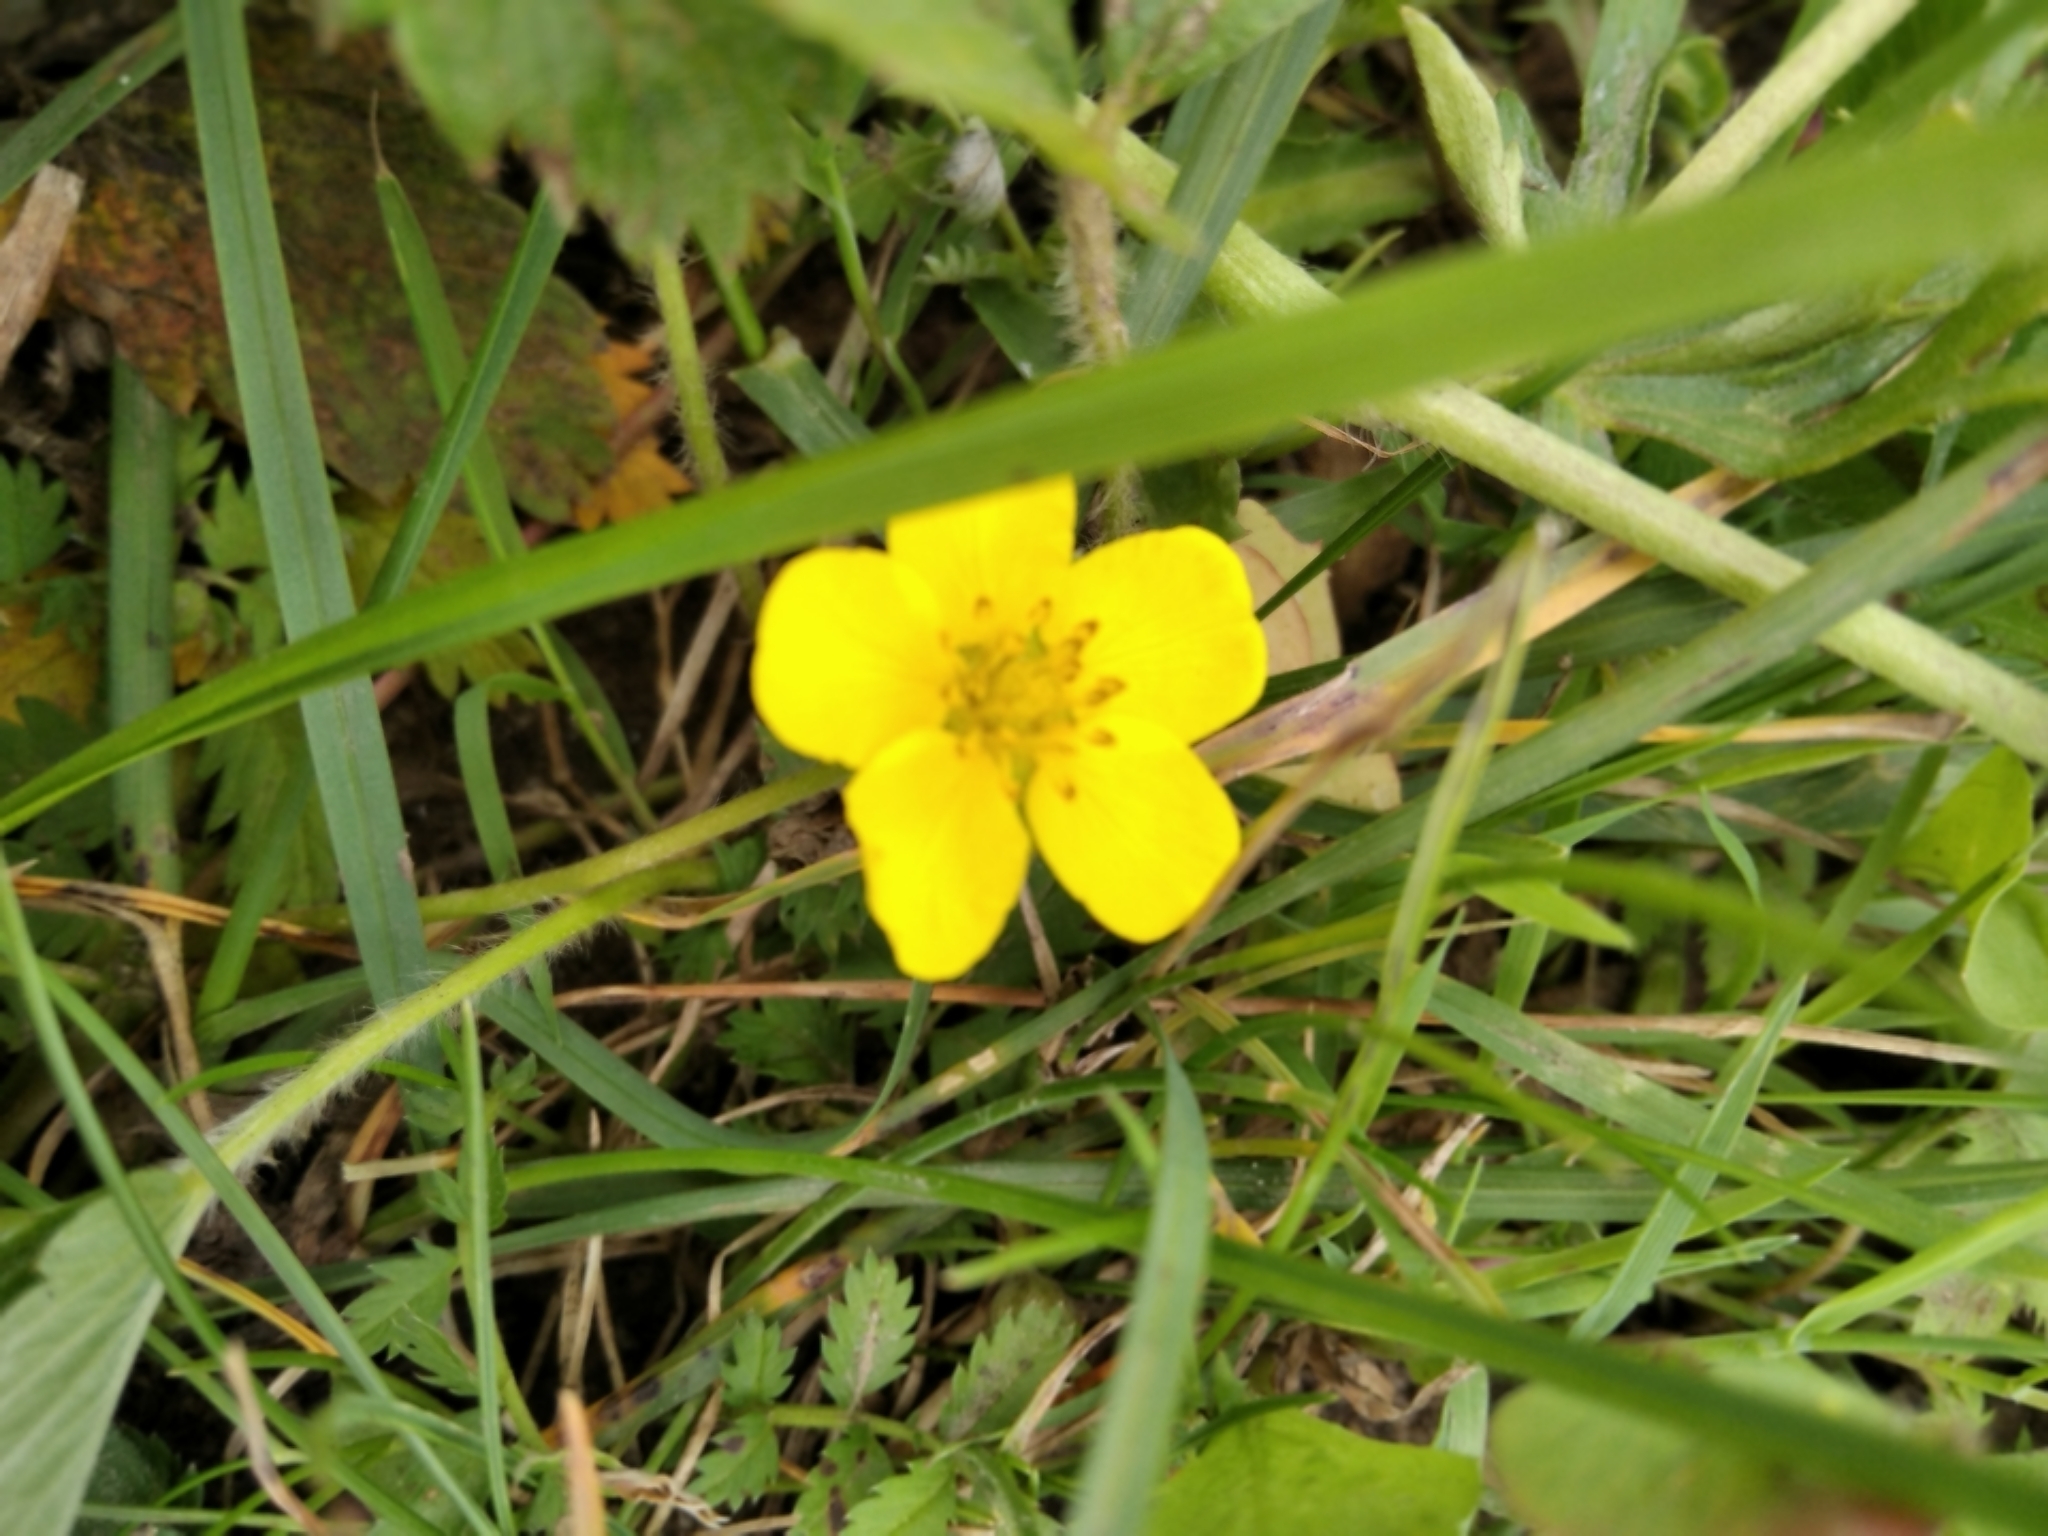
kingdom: Plantae
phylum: Tracheophyta
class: Magnoliopsida
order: Rosales
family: Rosaceae
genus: Argentina
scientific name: Argentina anserina
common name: Common silverweed
